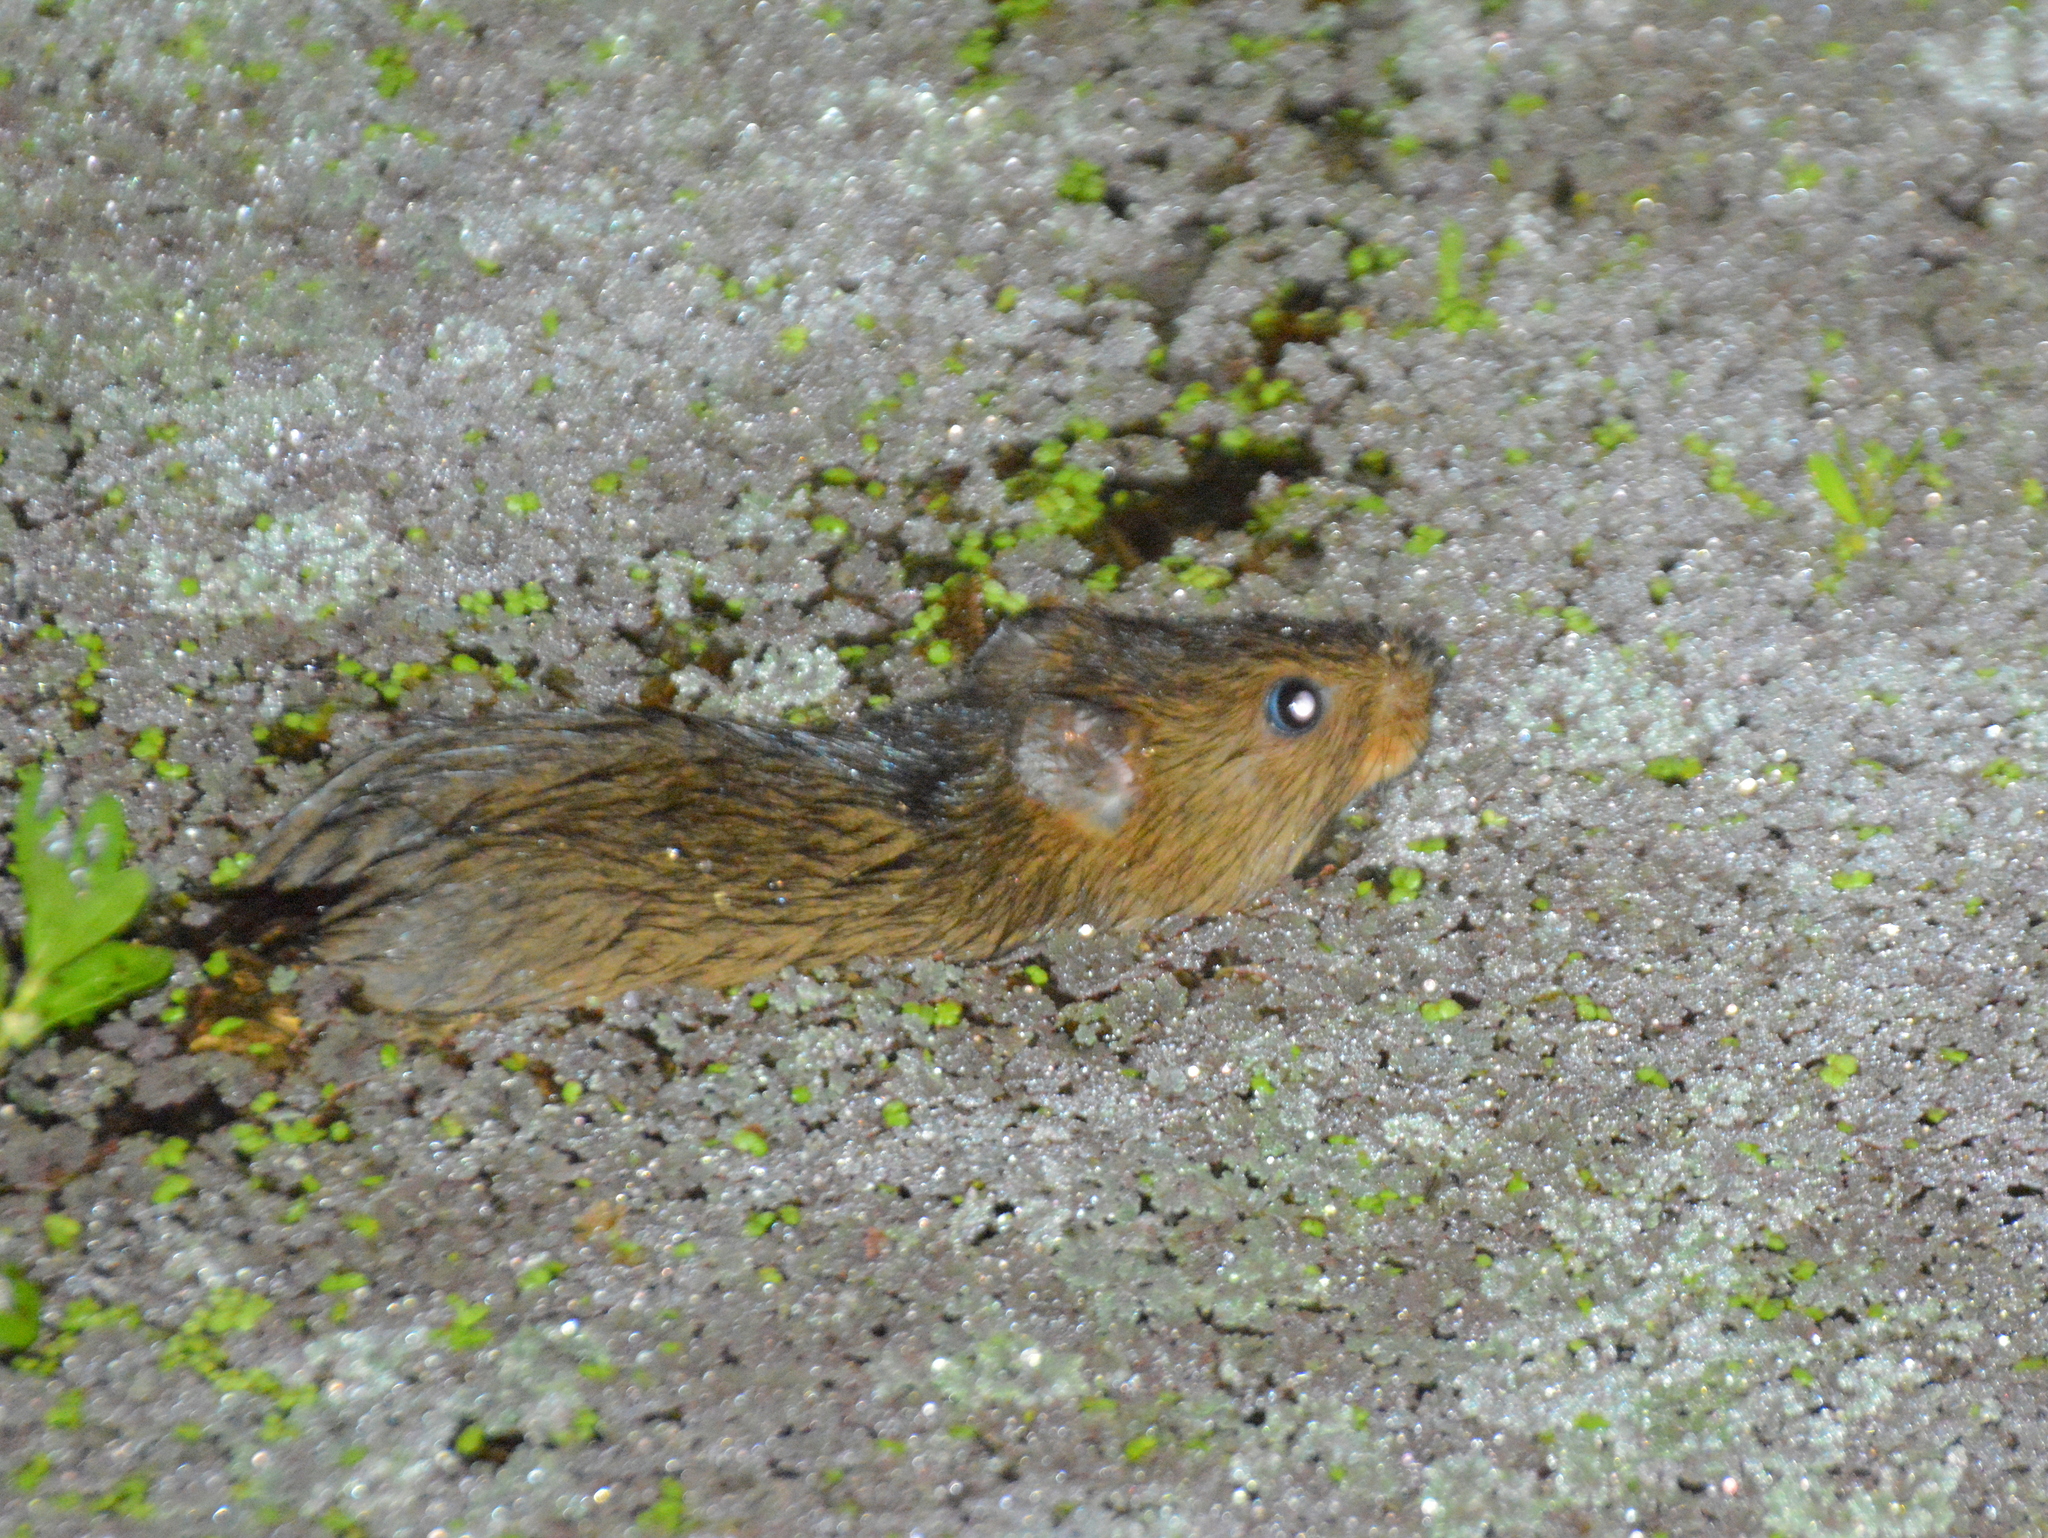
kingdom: Animalia
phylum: Chordata
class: Mammalia
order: Rodentia
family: Cricetidae
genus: Holochilus
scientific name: Holochilus brasiliensis
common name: Brazilian marsh rat
